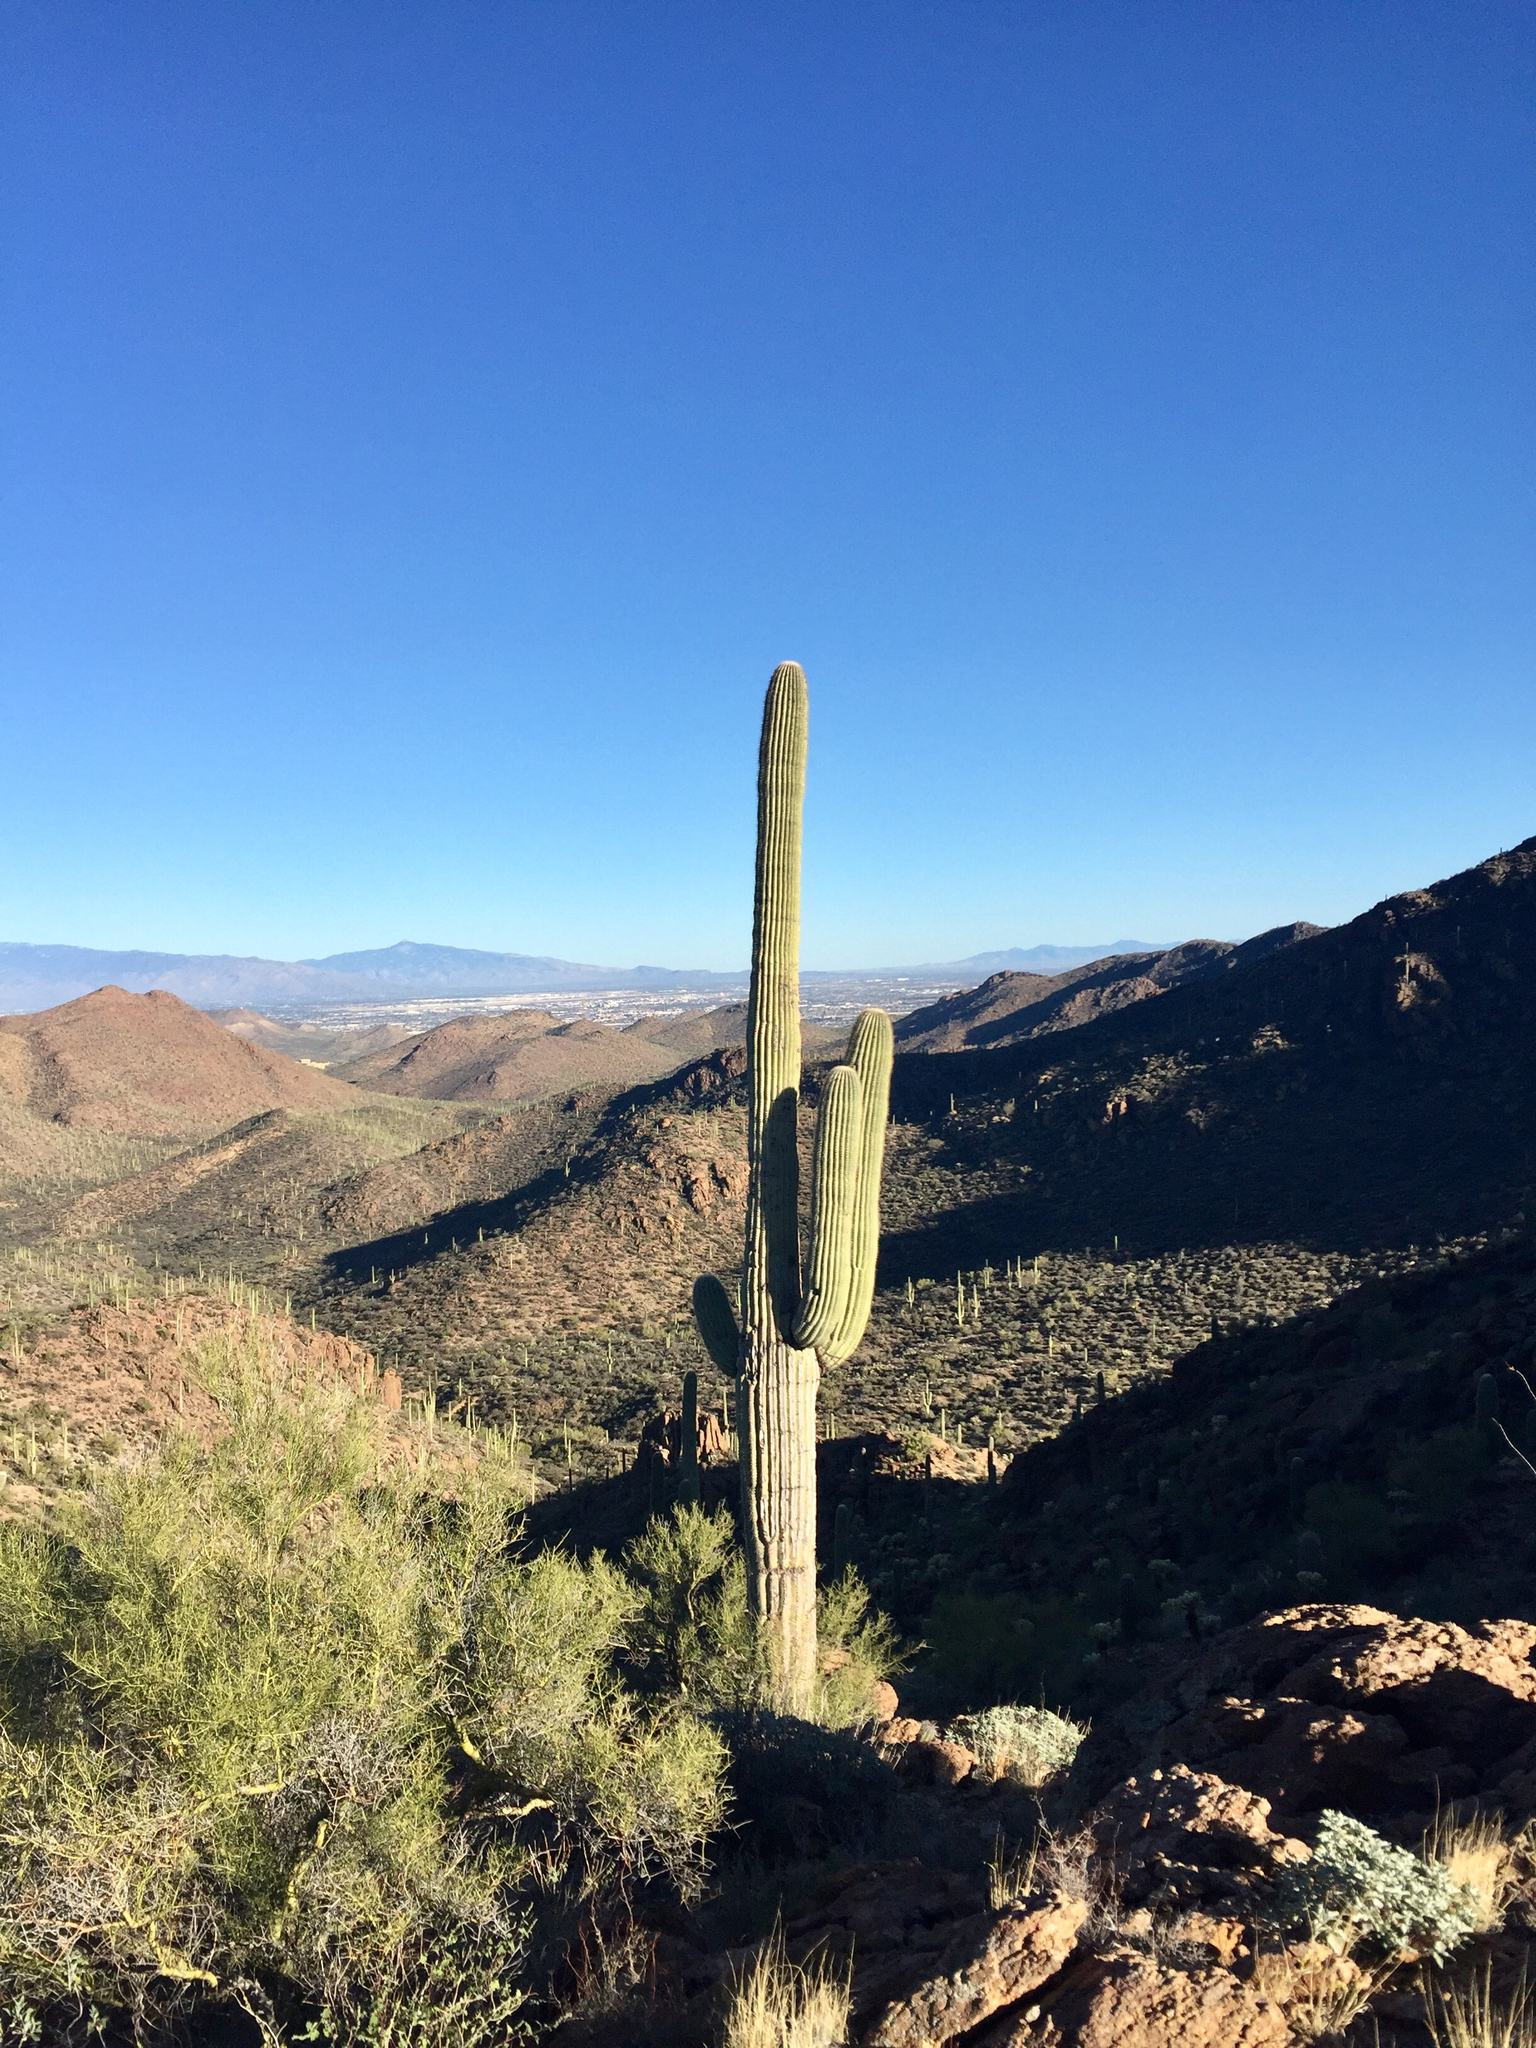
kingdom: Plantae
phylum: Tracheophyta
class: Magnoliopsida
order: Caryophyllales
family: Cactaceae
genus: Carnegiea
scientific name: Carnegiea gigantea
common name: Saguaro
